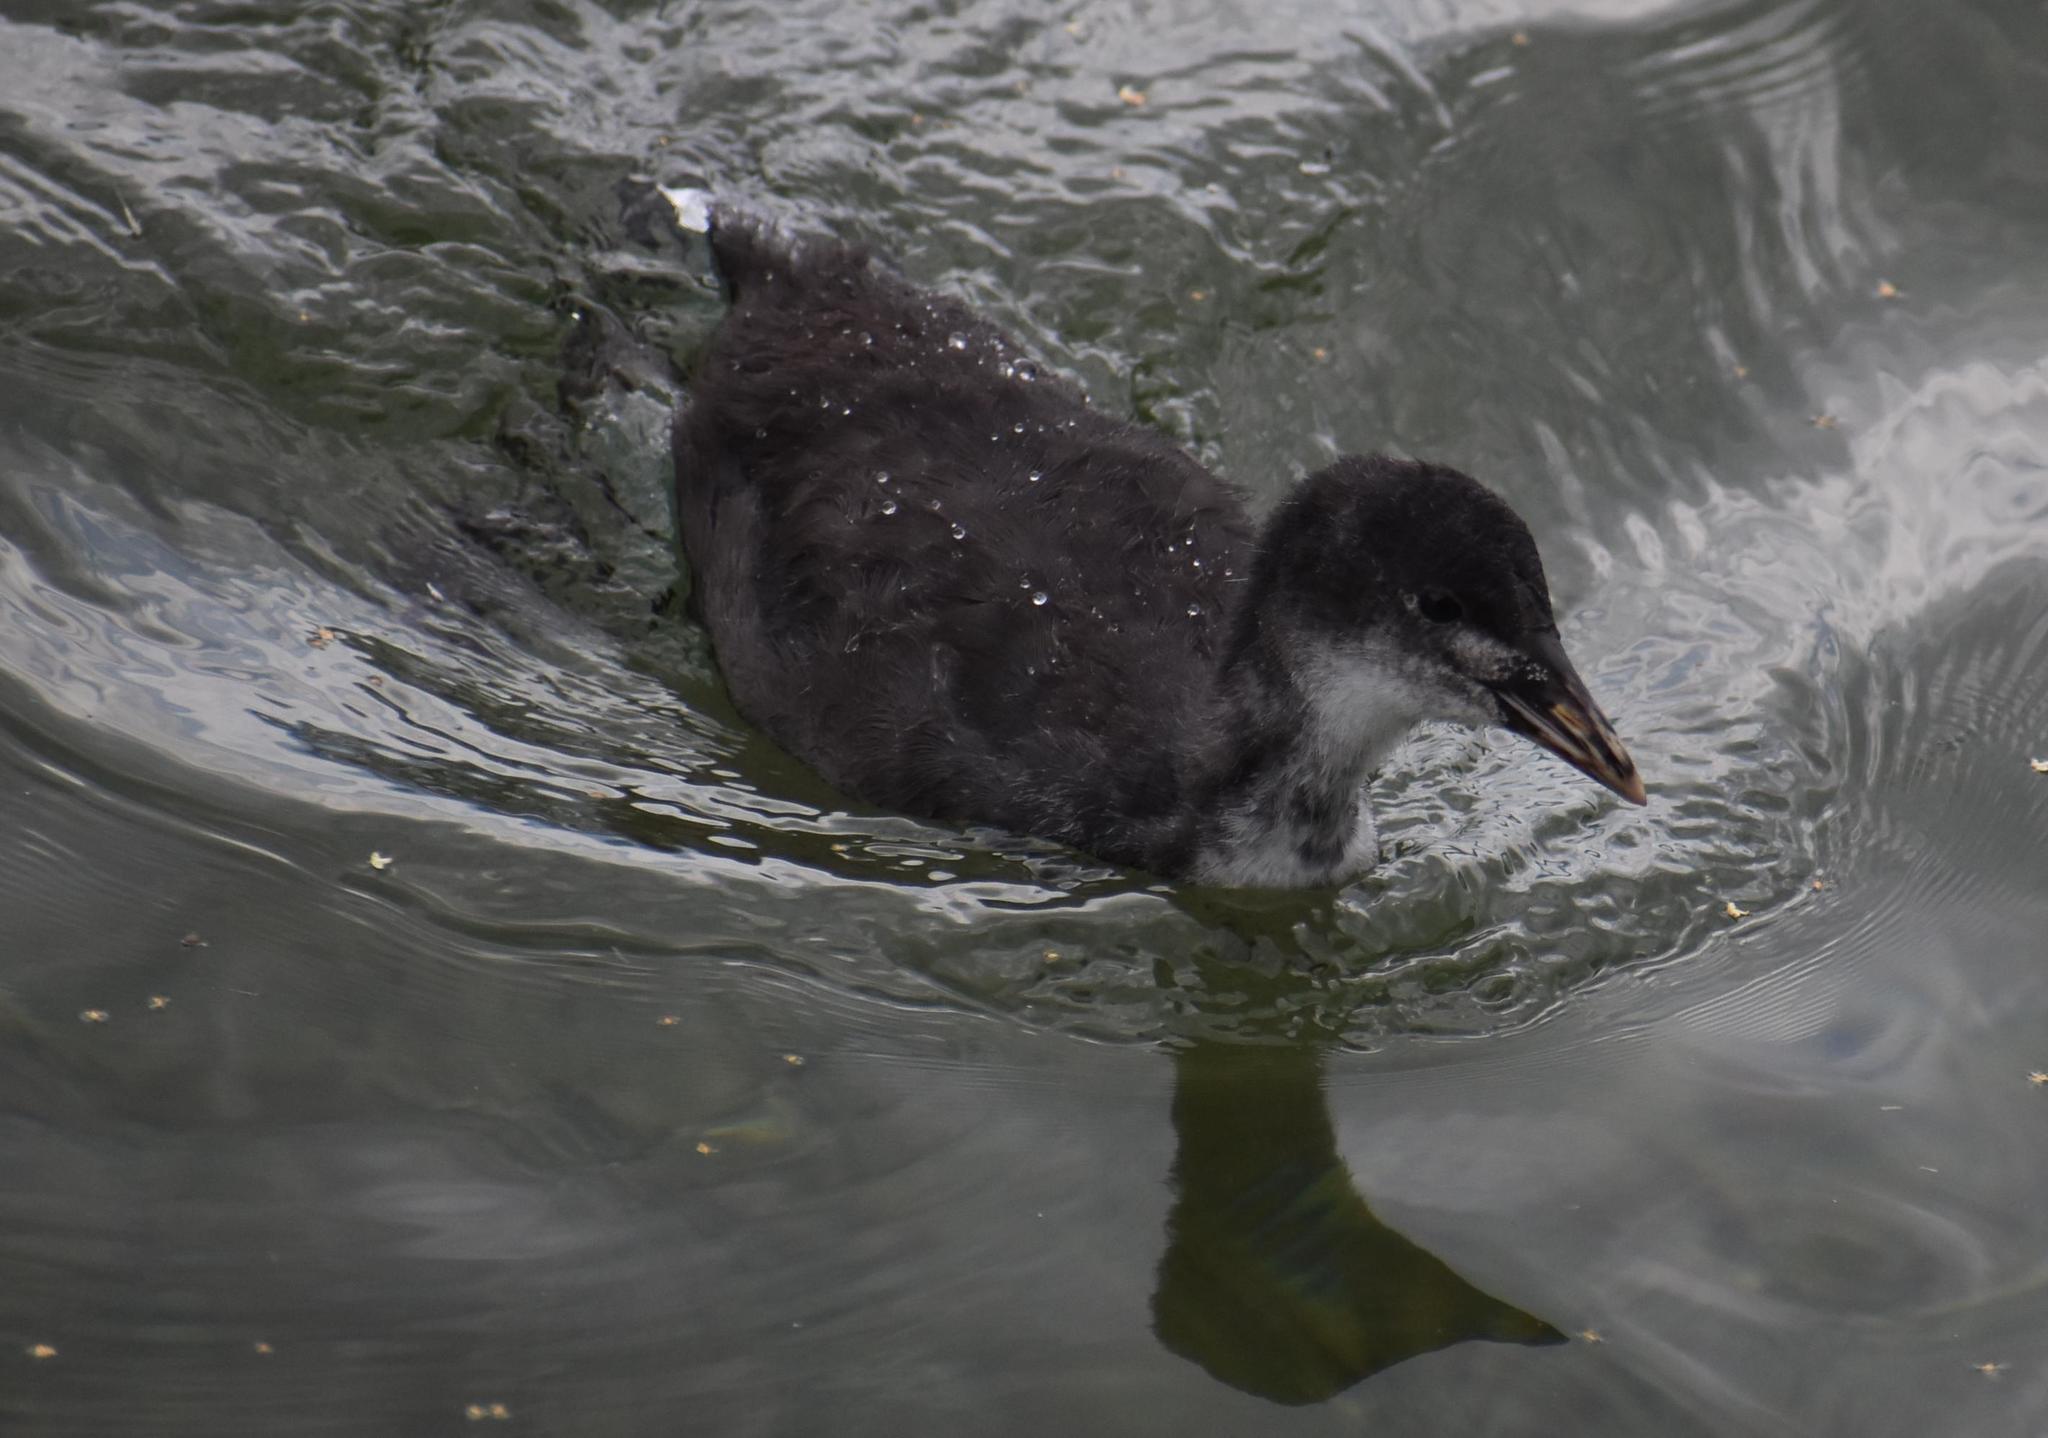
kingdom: Animalia
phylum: Chordata
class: Aves
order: Gruiformes
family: Rallidae
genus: Fulica
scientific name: Fulica atra
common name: Eurasian coot
